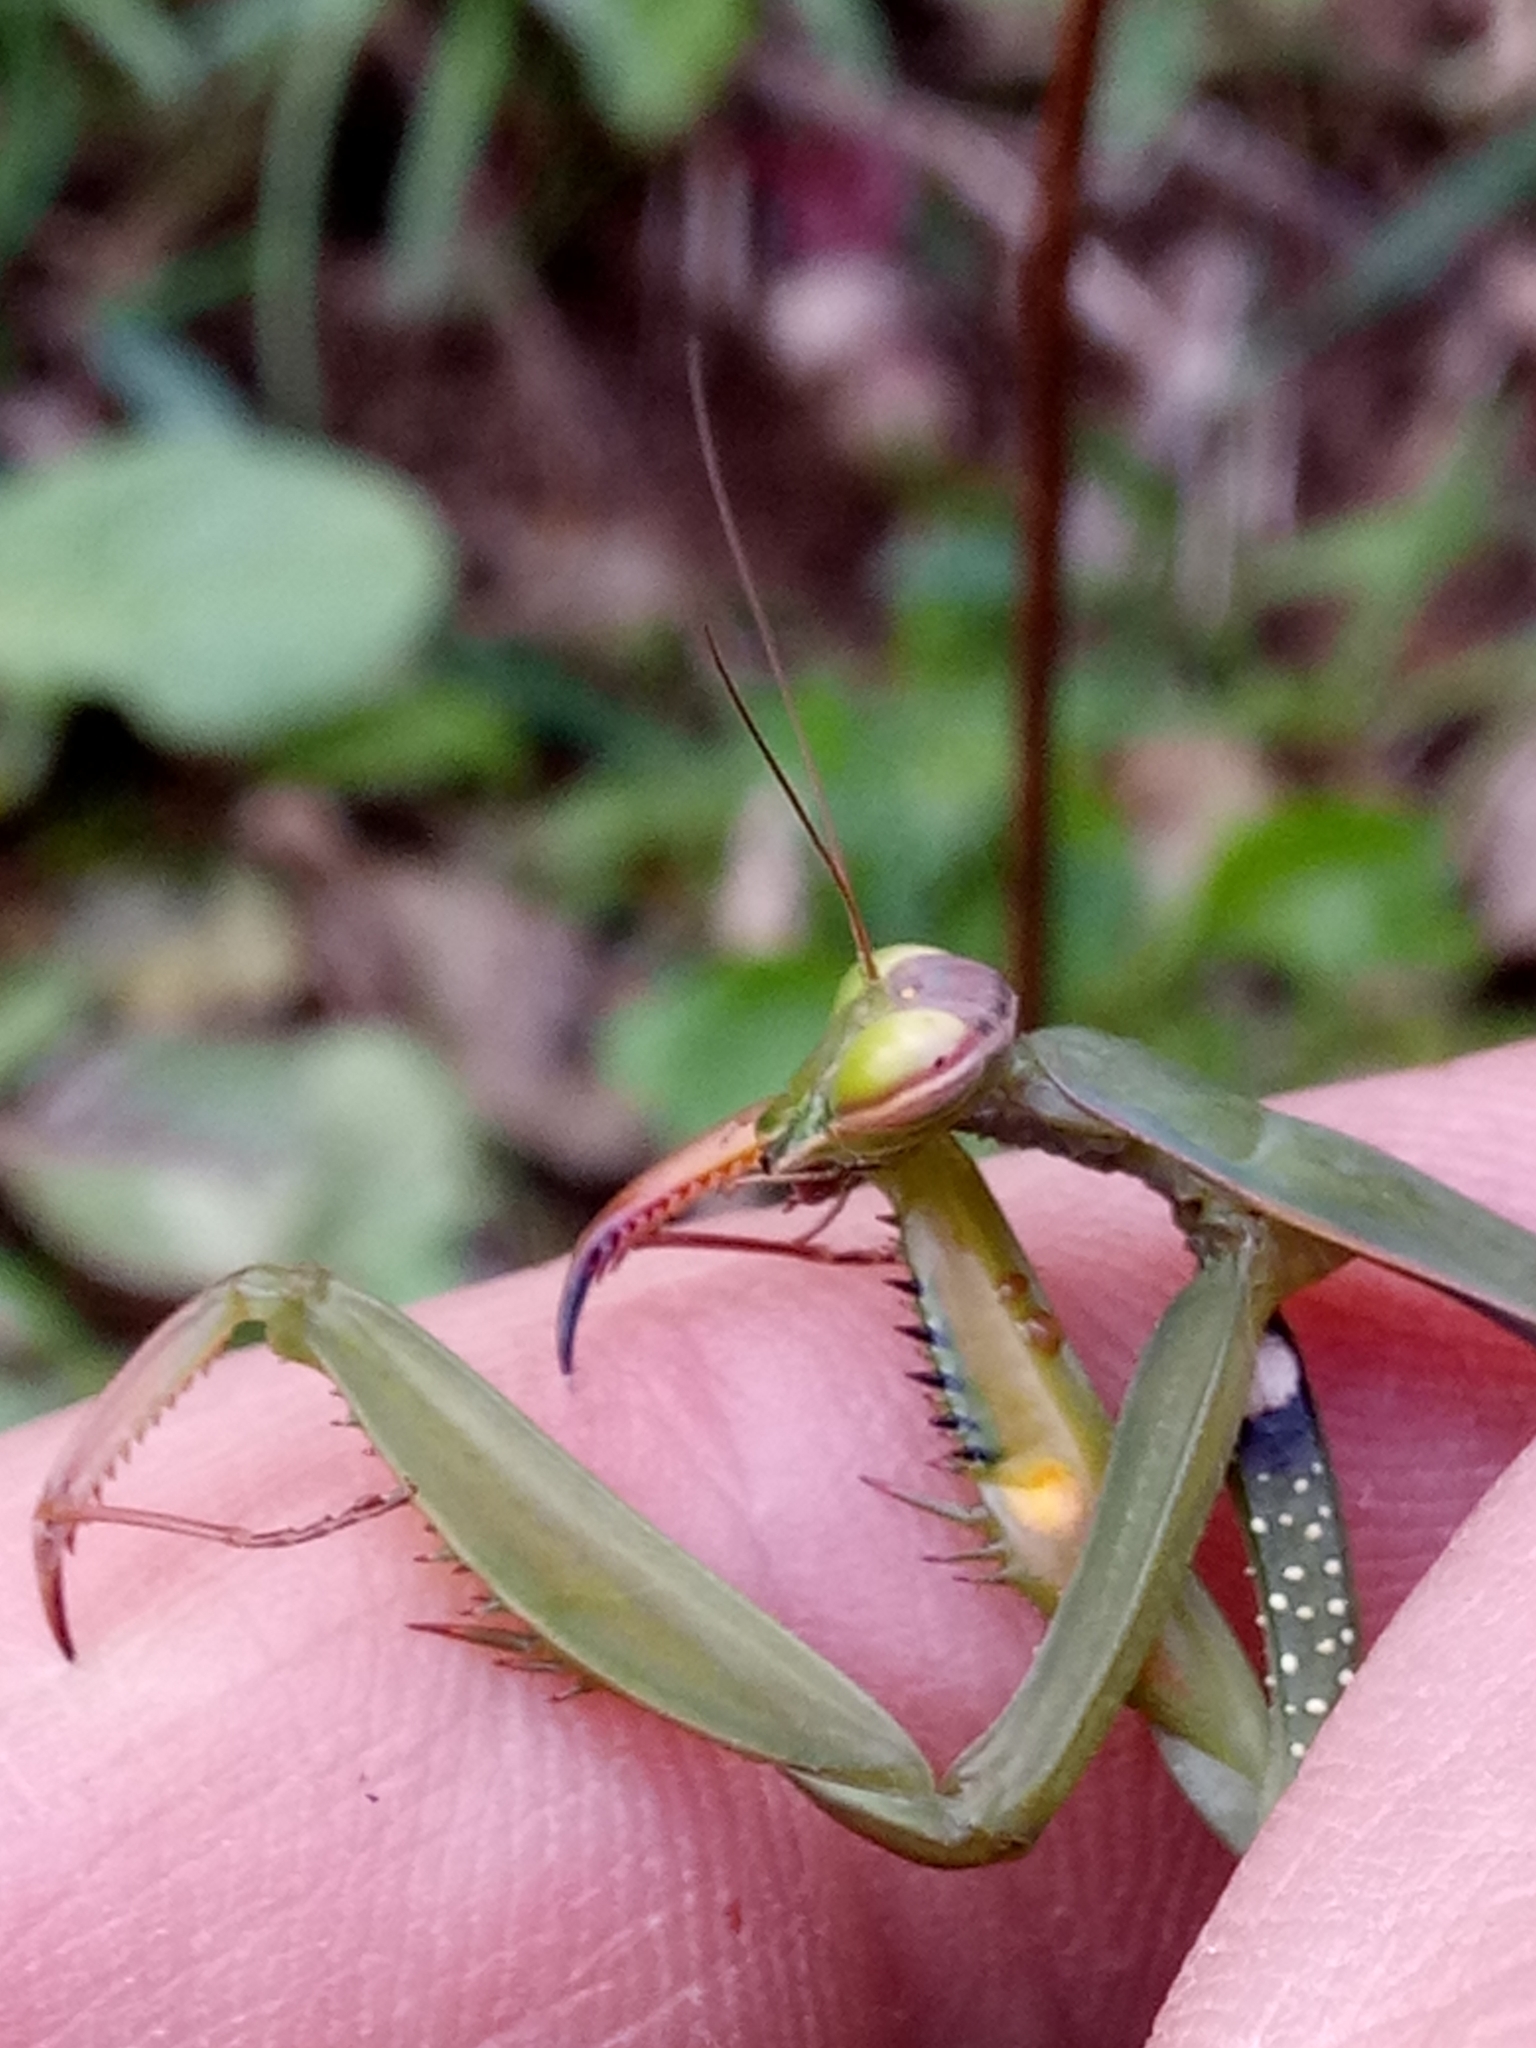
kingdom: Animalia
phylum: Arthropoda
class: Insecta
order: Mantodea
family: Mantidae
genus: Mantis
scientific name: Mantis religiosa
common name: Praying mantis
